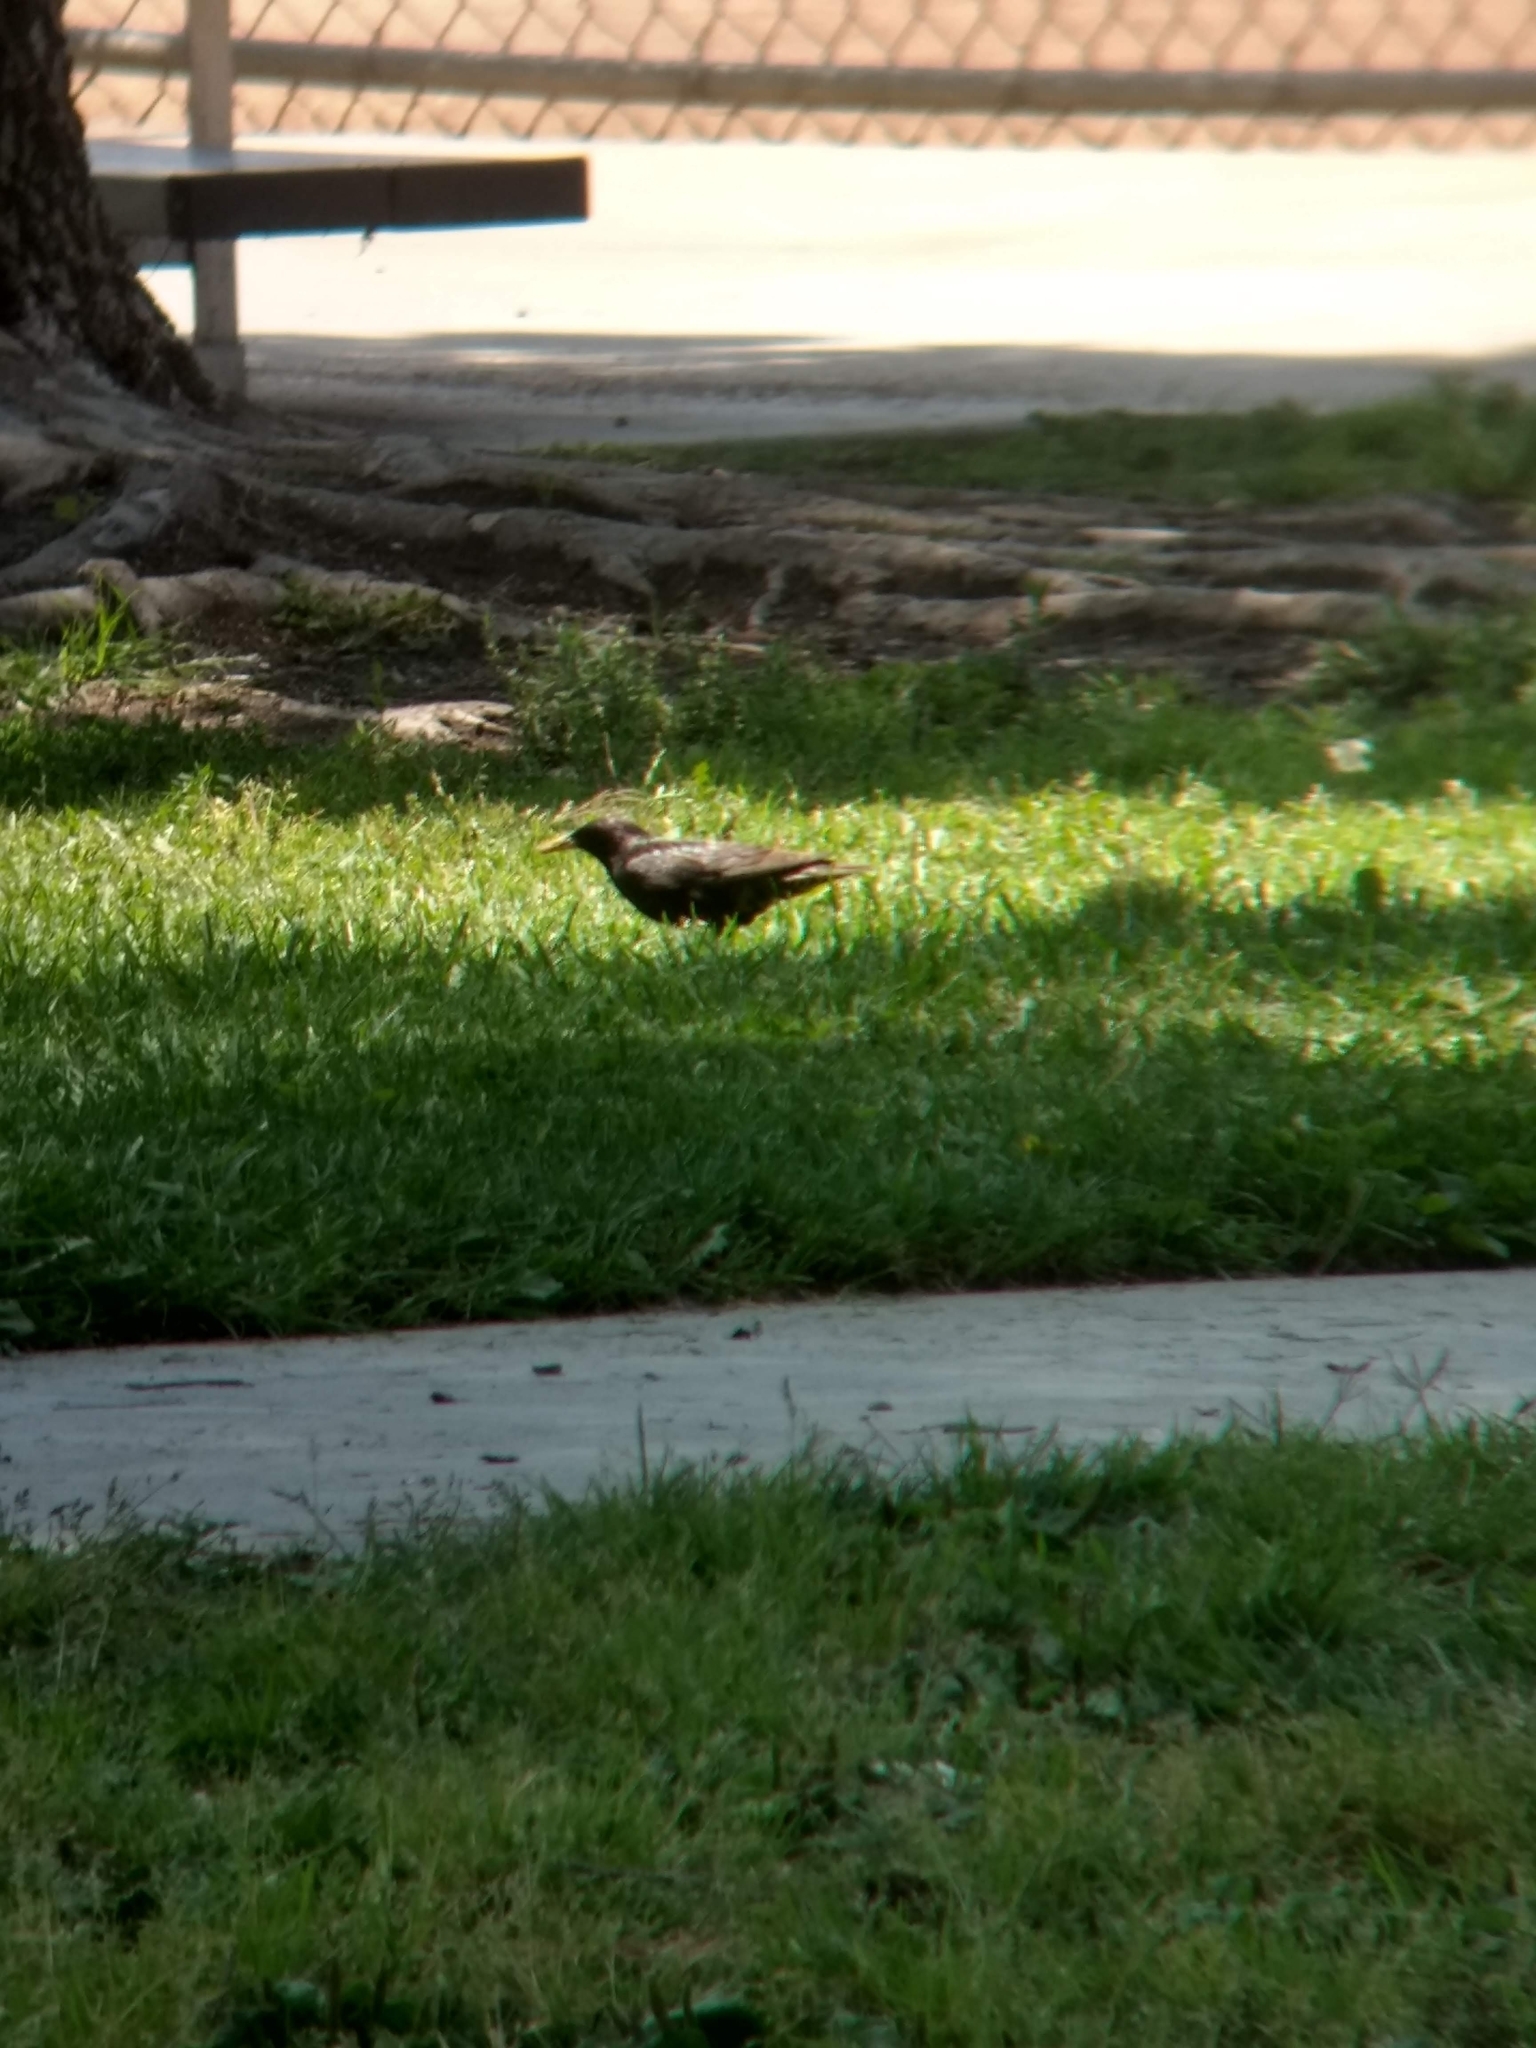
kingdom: Animalia
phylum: Chordata
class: Aves
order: Passeriformes
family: Sturnidae
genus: Sturnus
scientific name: Sturnus vulgaris
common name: Common starling
